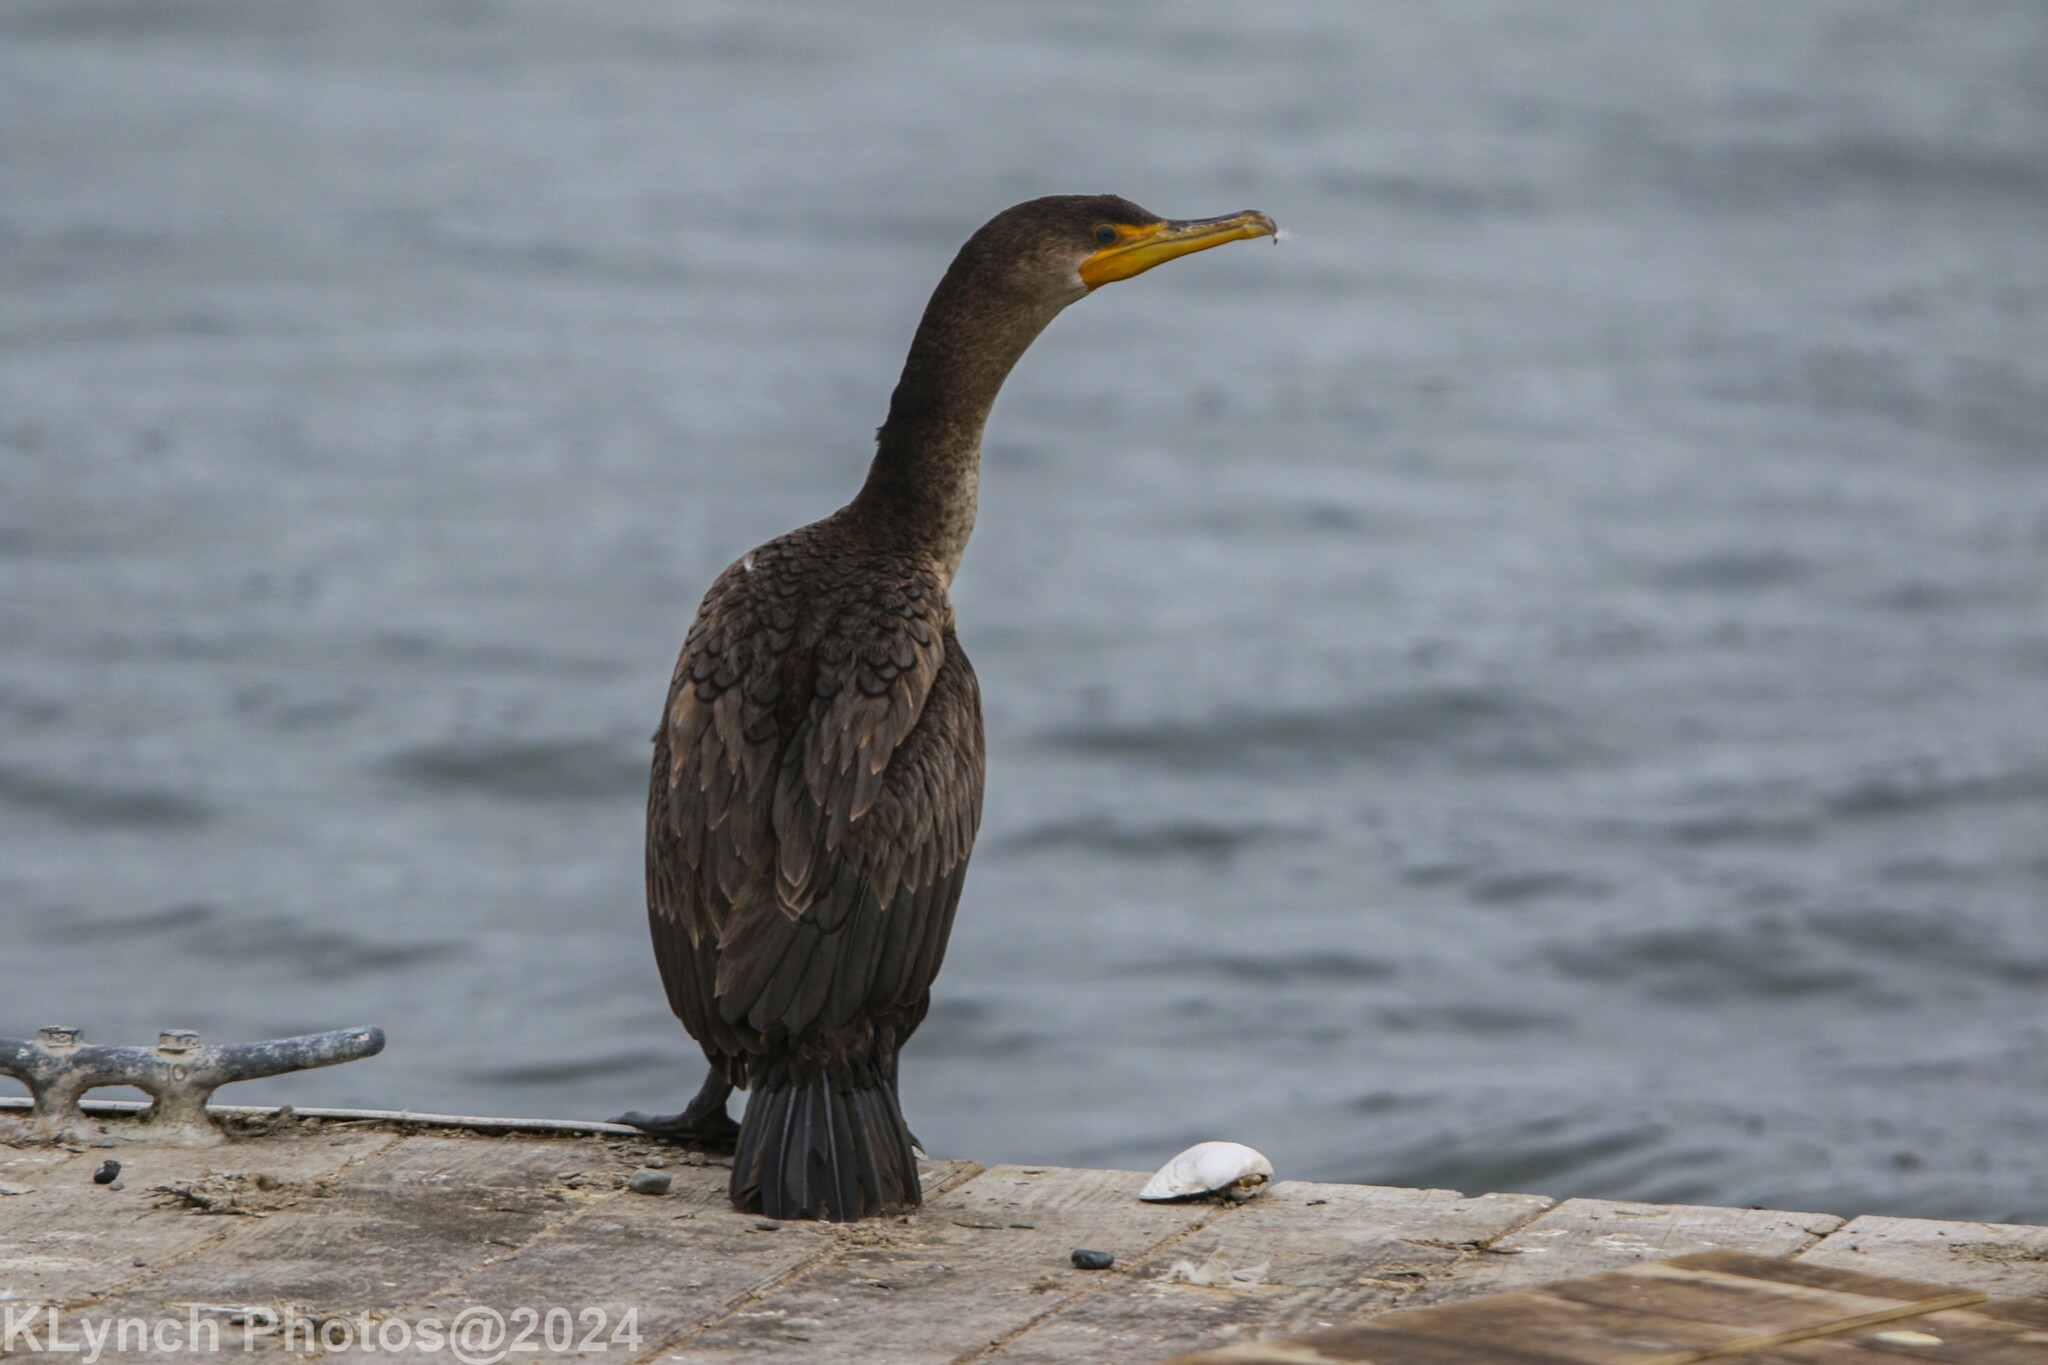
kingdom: Animalia
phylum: Chordata
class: Aves
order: Suliformes
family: Phalacrocoracidae
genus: Phalacrocorax
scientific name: Phalacrocorax auritus
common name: Double-crested cormorant
